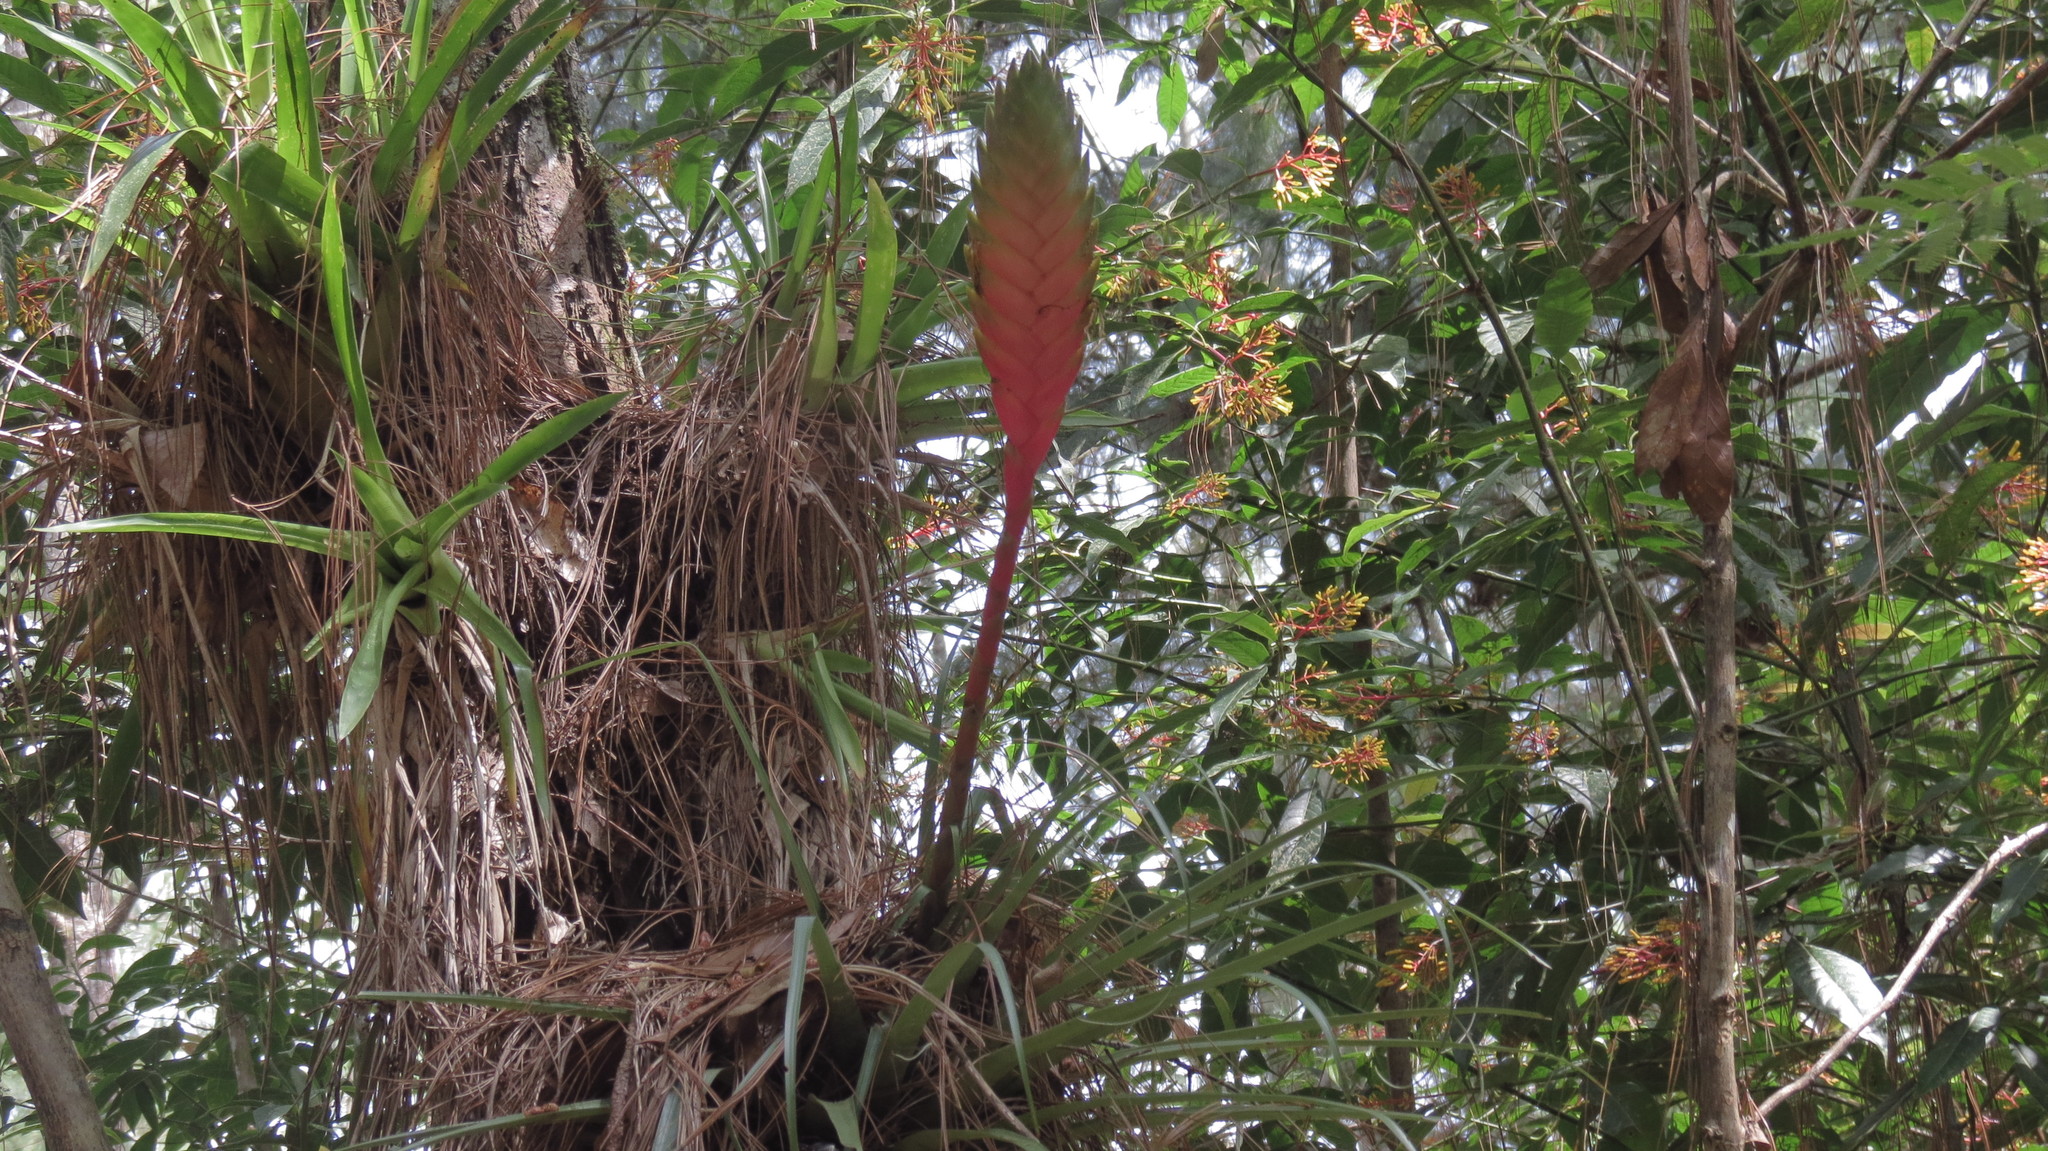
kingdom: Plantae
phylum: Tracheophyta
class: Liliopsida
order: Poales
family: Bromeliaceae
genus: Tillandsia
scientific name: Tillandsia lampropoda
